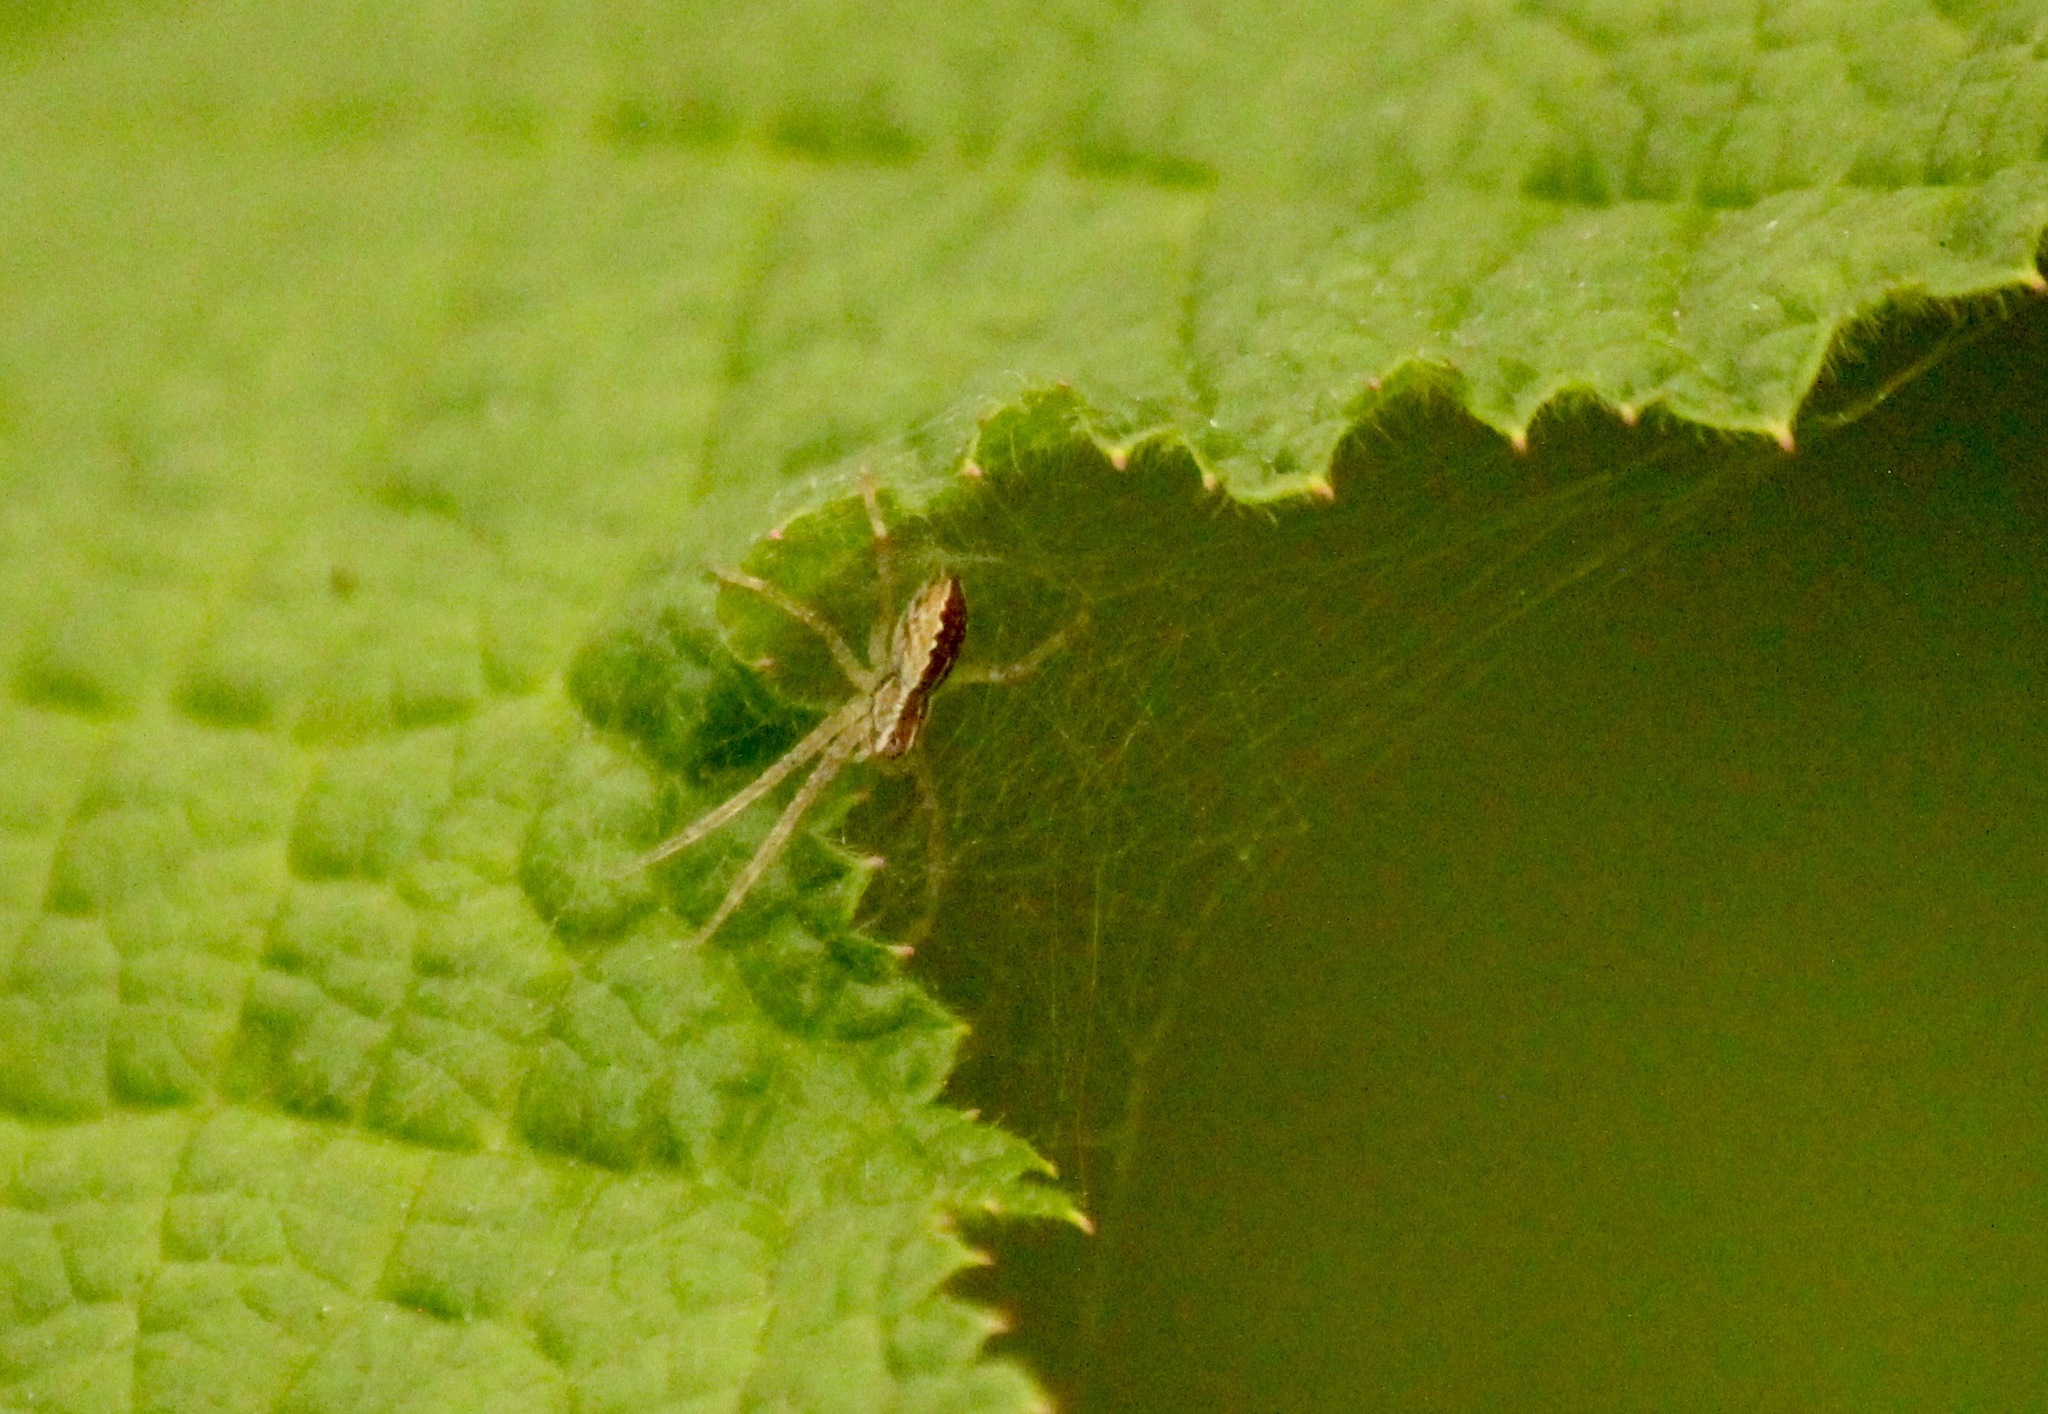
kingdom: Animalia
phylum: Arthropoda
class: Arachnida
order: Araneae
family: Pisauridae
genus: Pisaurina
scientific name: Pisaurina mira
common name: American nursery web spider
